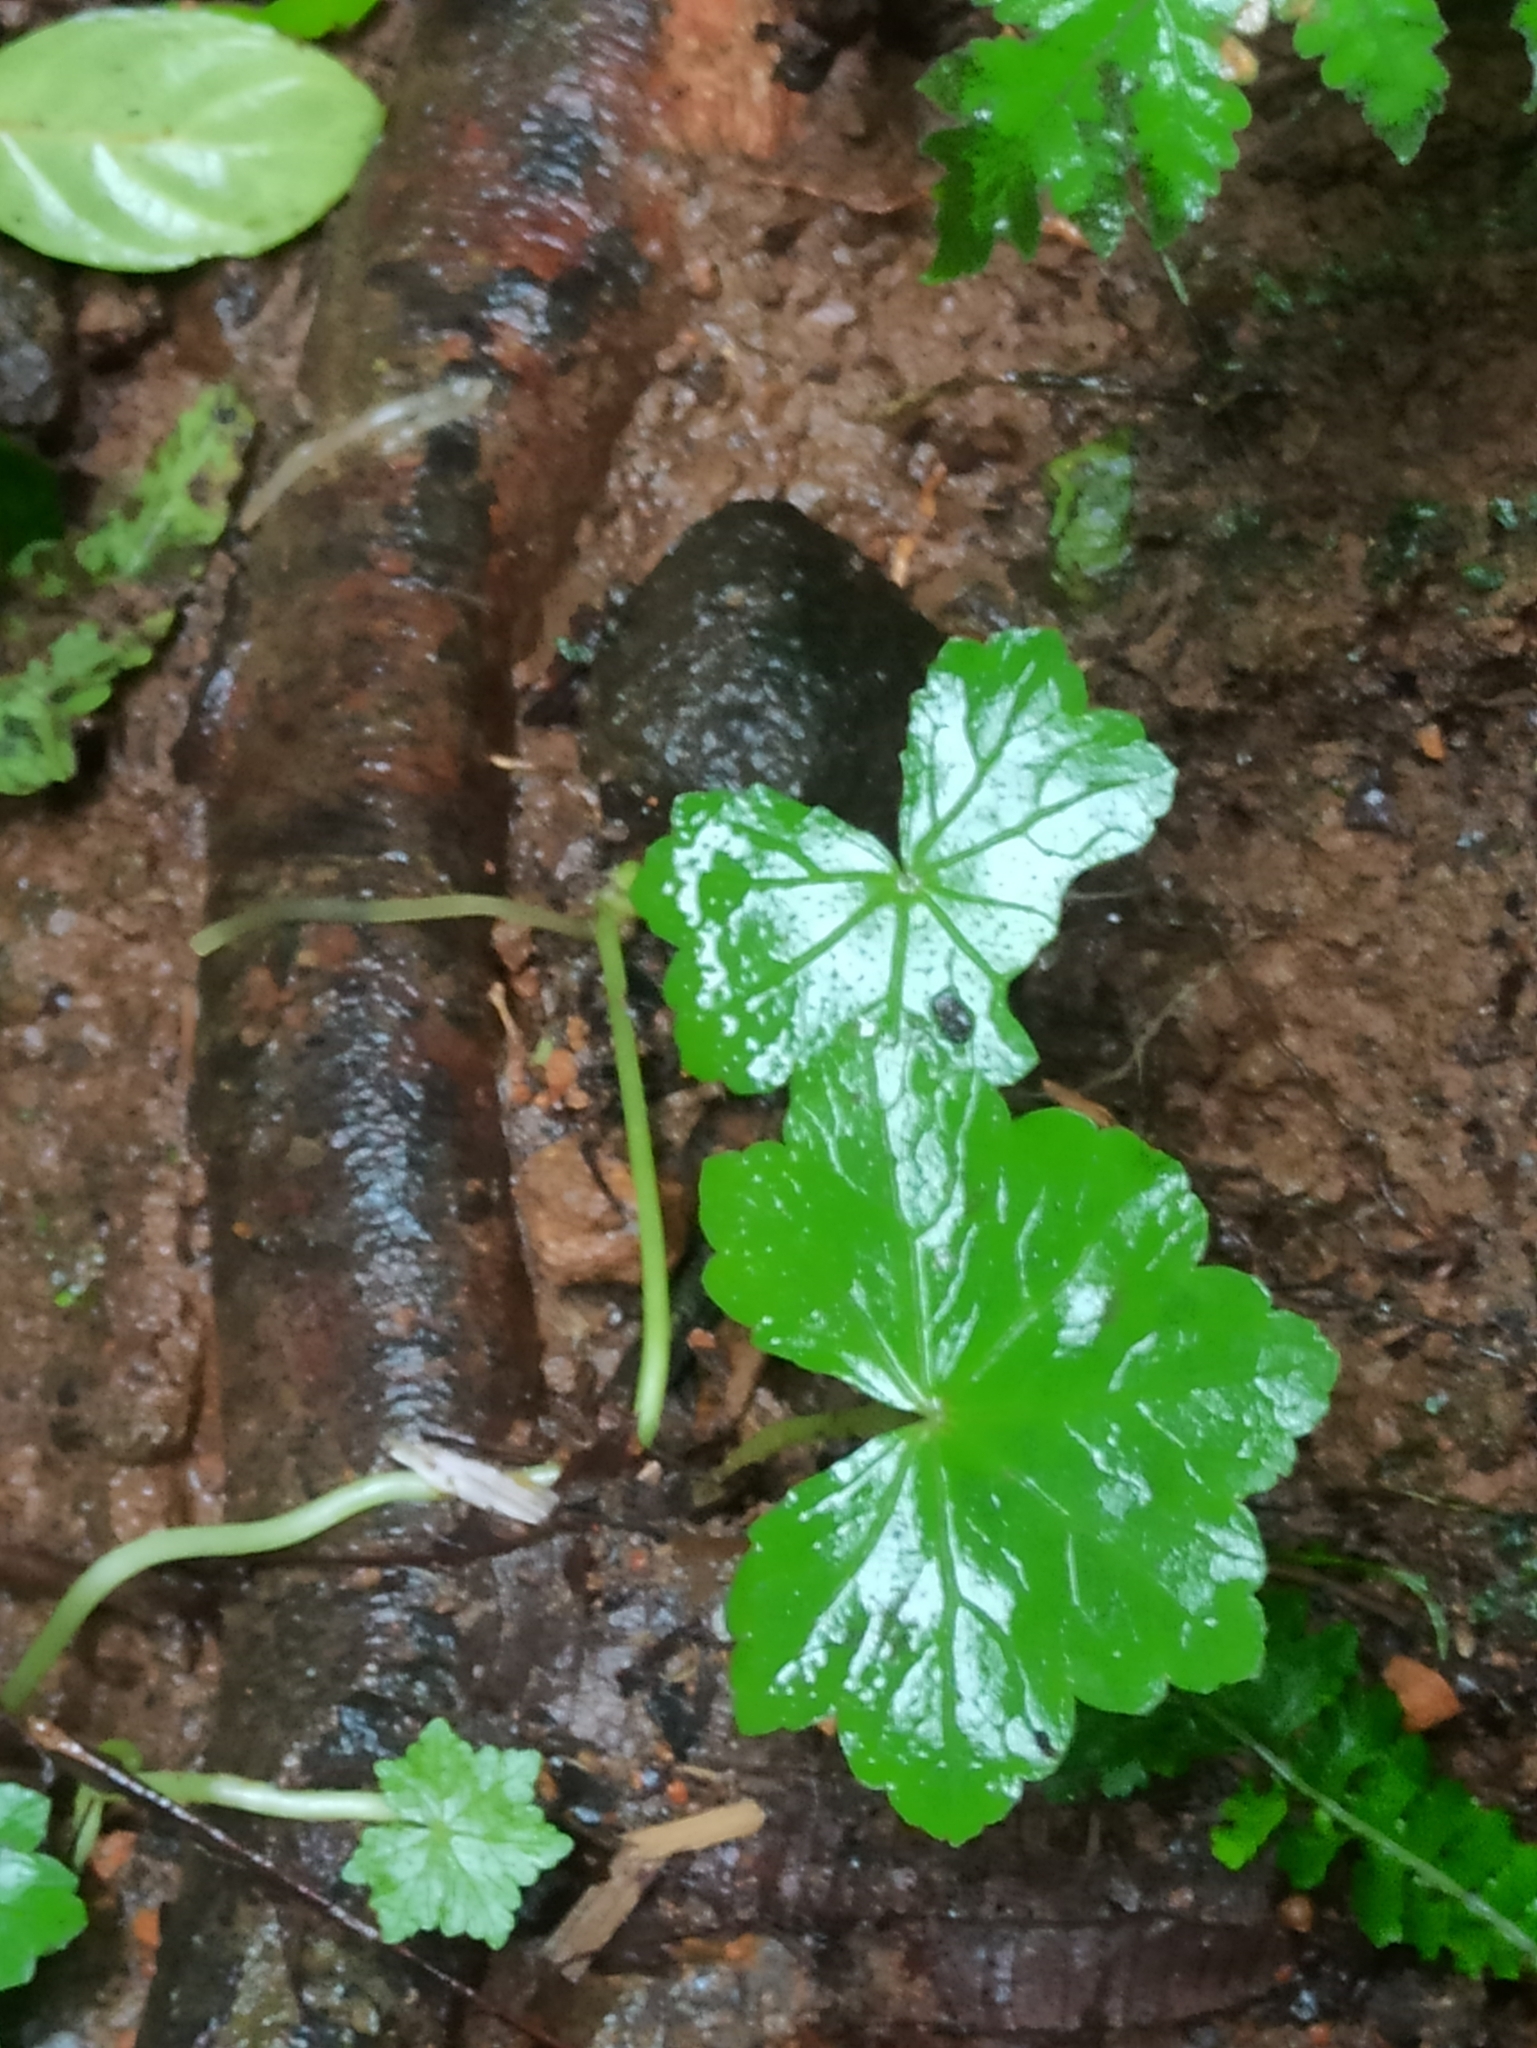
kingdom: Plantae
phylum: Tracheophyta
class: Magnoliopsida
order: Apiales
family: Araliaceae
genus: Hydrocotyle
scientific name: Hydrocotyle javanica
